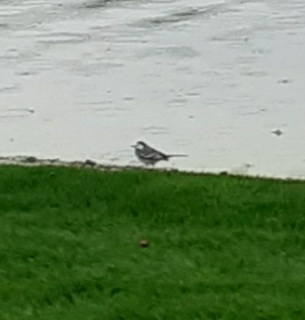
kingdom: Animalia
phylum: Chordata
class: Aves
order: Passeriformes
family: Motacillidae
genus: Motacilla
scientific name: Motacilla alba
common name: White wagtail
